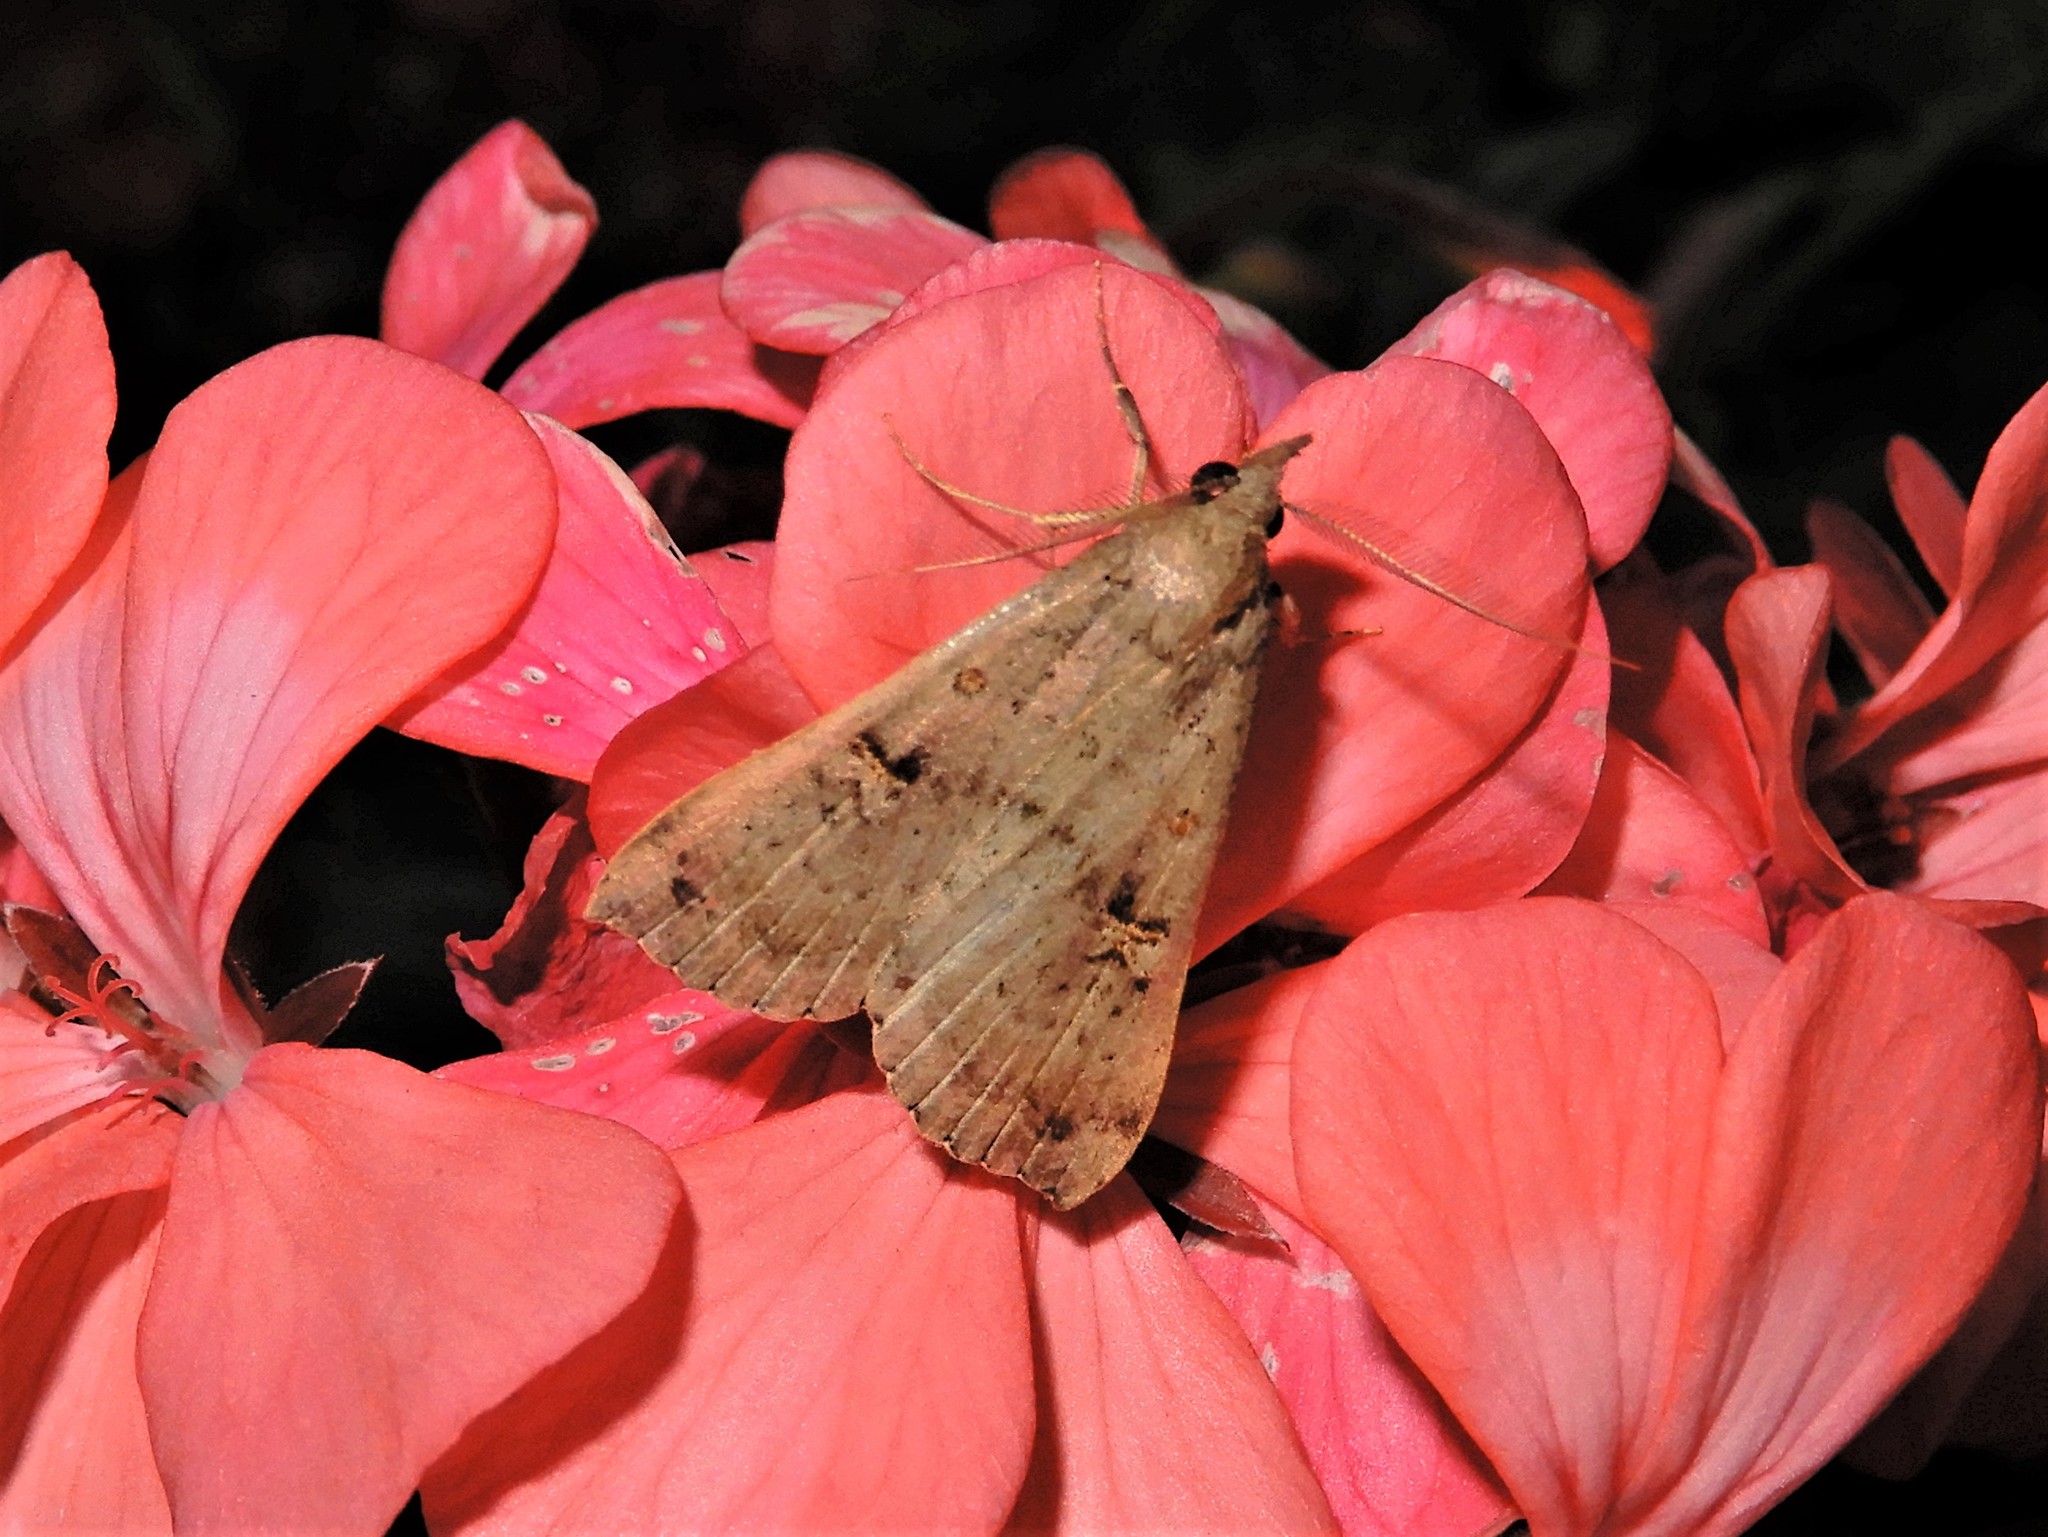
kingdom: Animalia
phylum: Arthropoda
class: Insecta
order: Lepidoptera
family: Erebidae
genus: Rhapsa
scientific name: Rhapsa scotosialis
